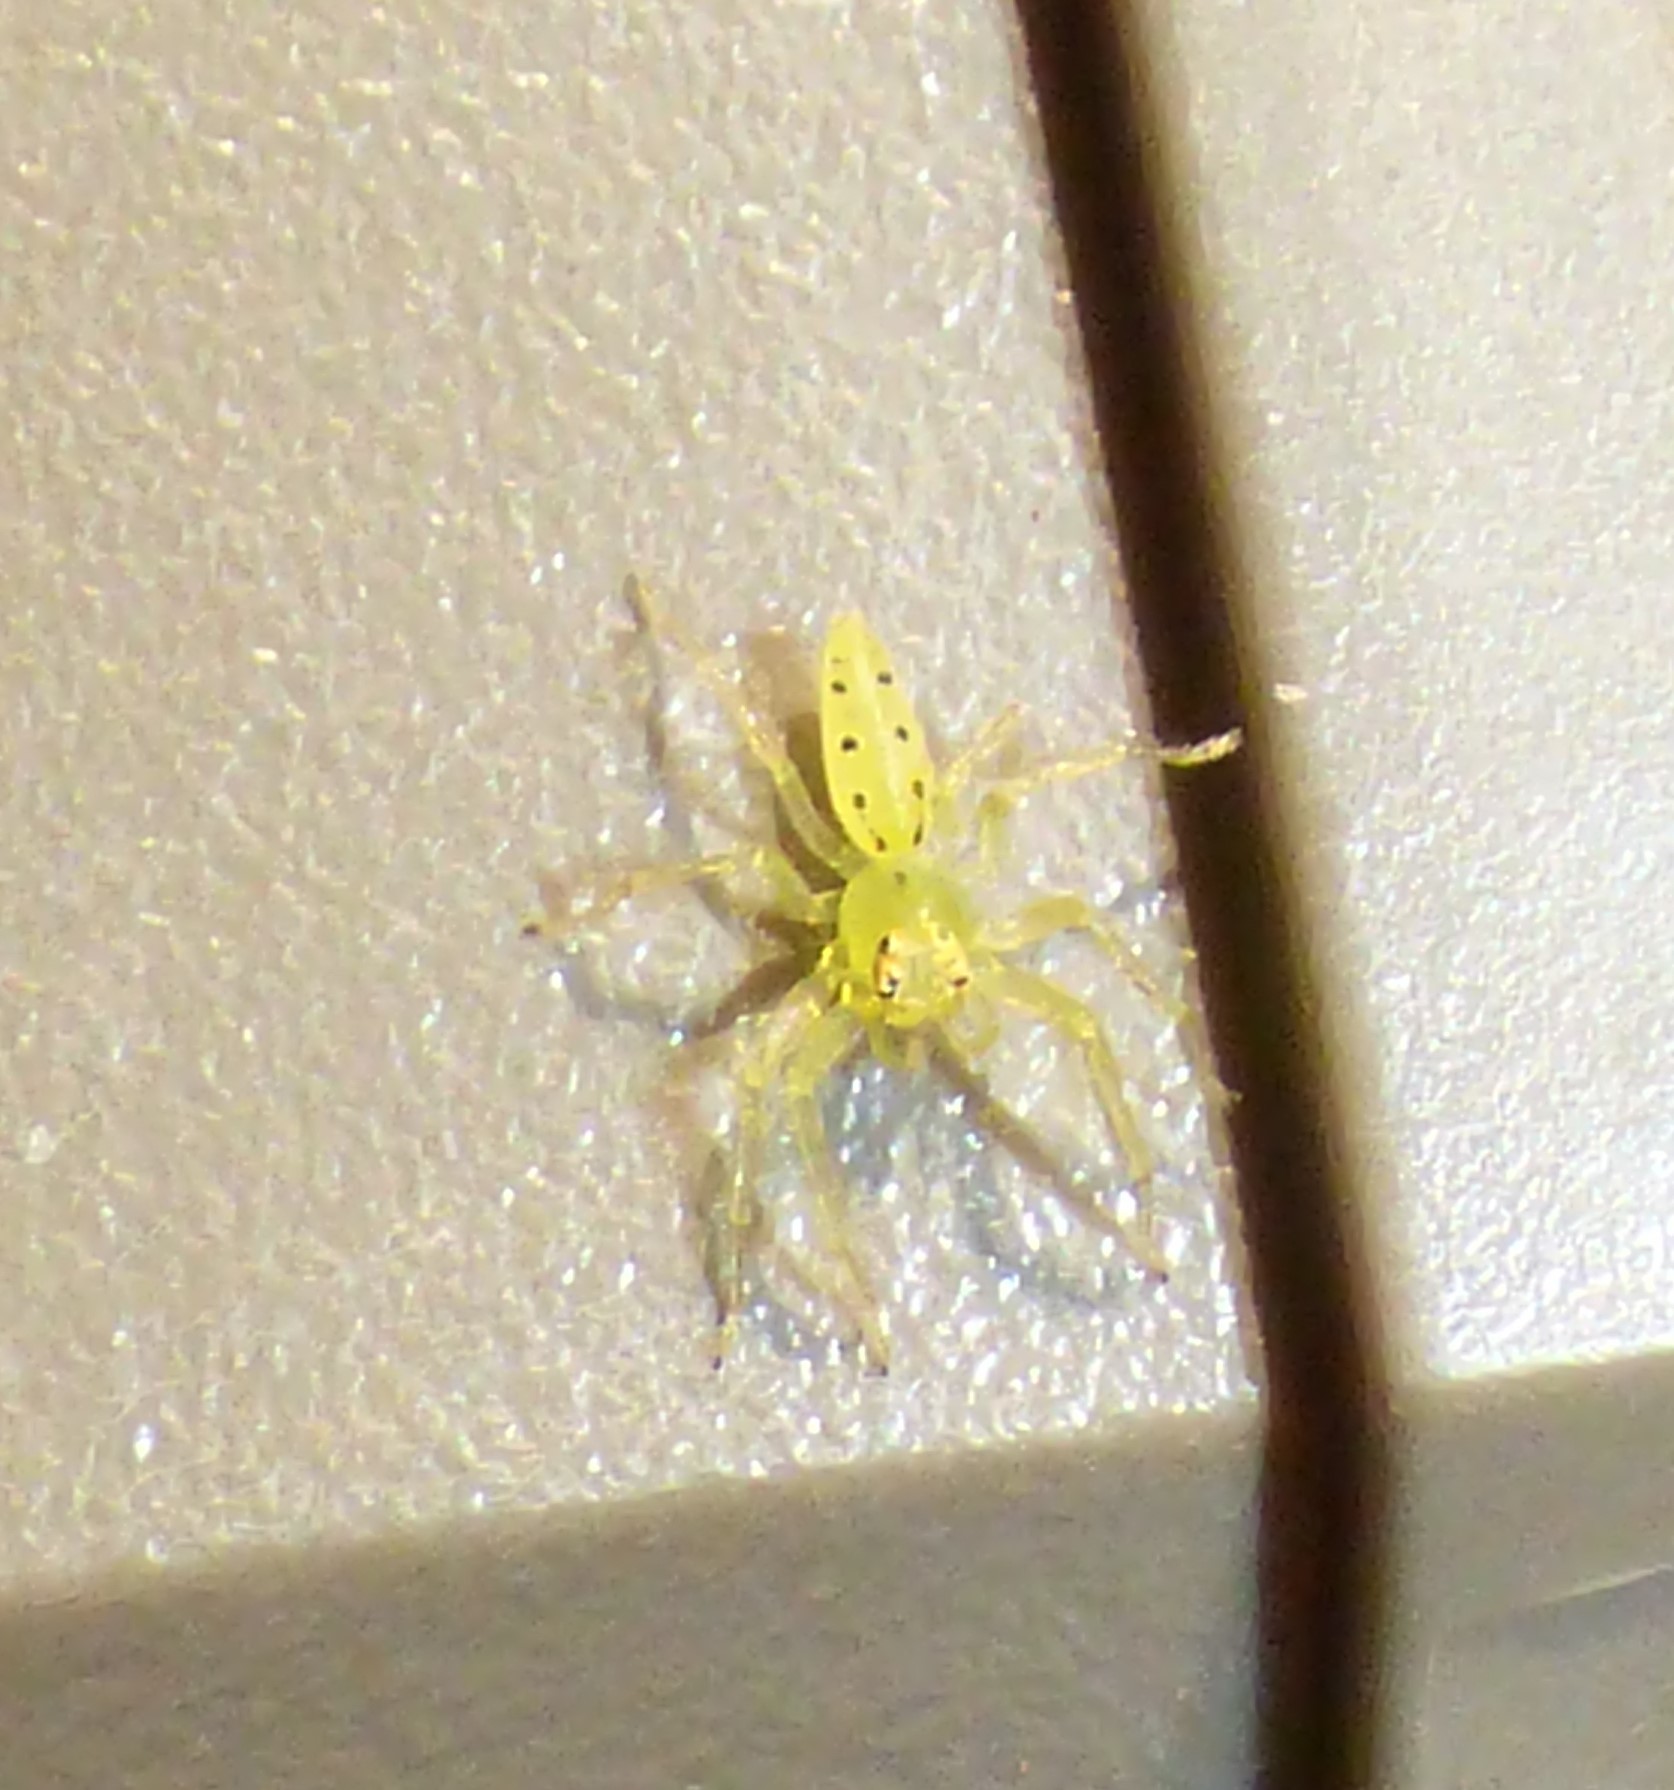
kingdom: Animalia
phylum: Arthropoda
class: Arachnida
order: Araneae
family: Salticidae
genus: Lyssomanes
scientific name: Lyssomanes viridis
